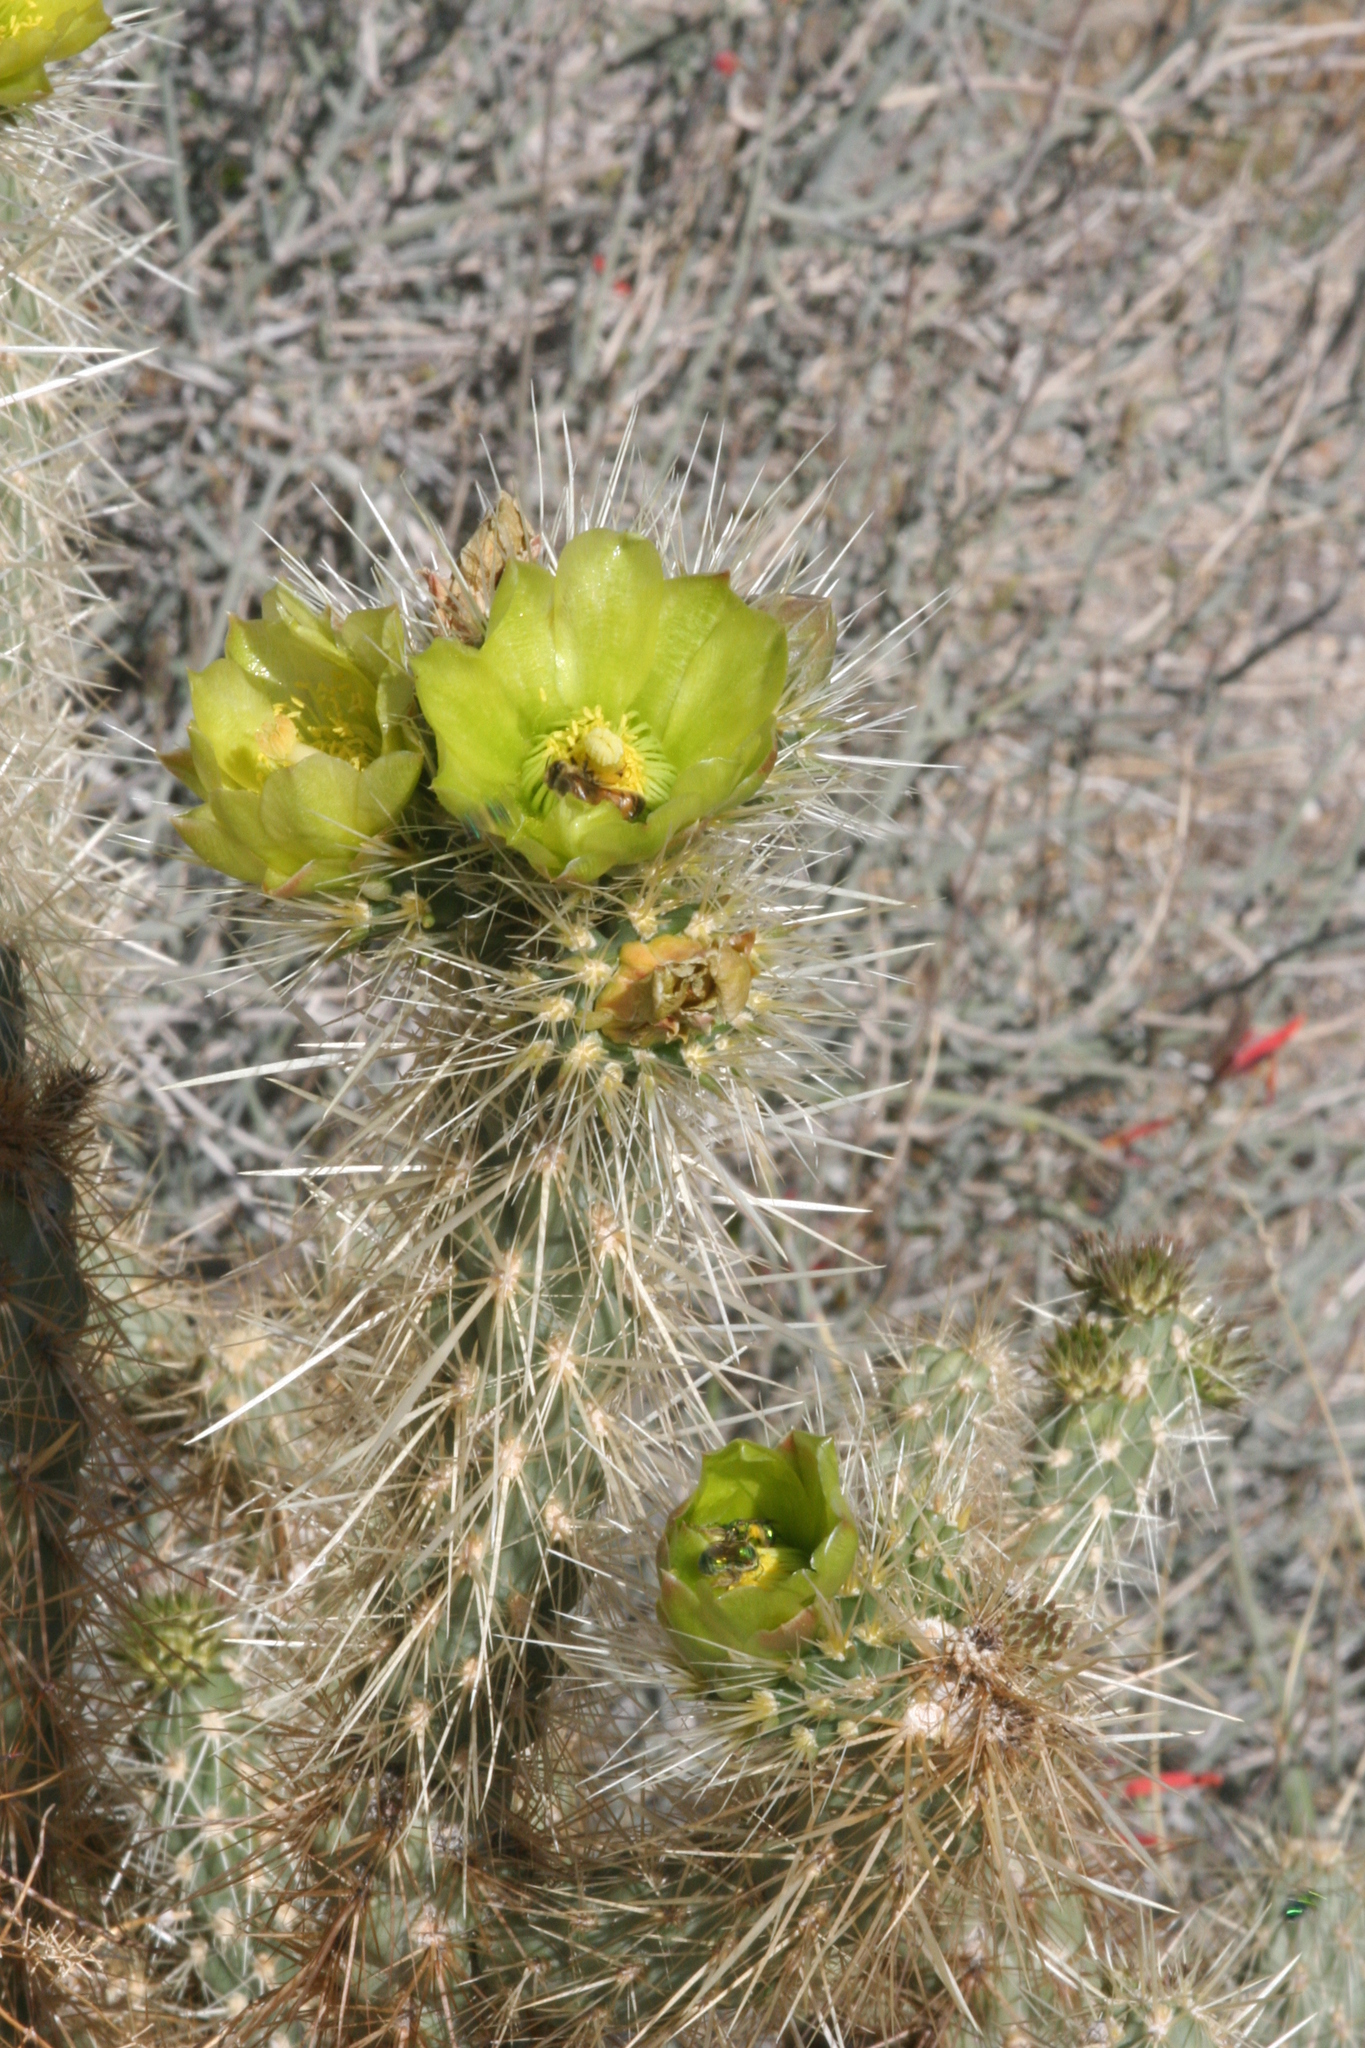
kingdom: Plantae
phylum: Tracheophyta
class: Magnoliopsida
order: Caryophyllales
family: Cactaceae
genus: Cylindropuntia
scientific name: Cylindropuntia echinocarpa
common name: Ground cholla
